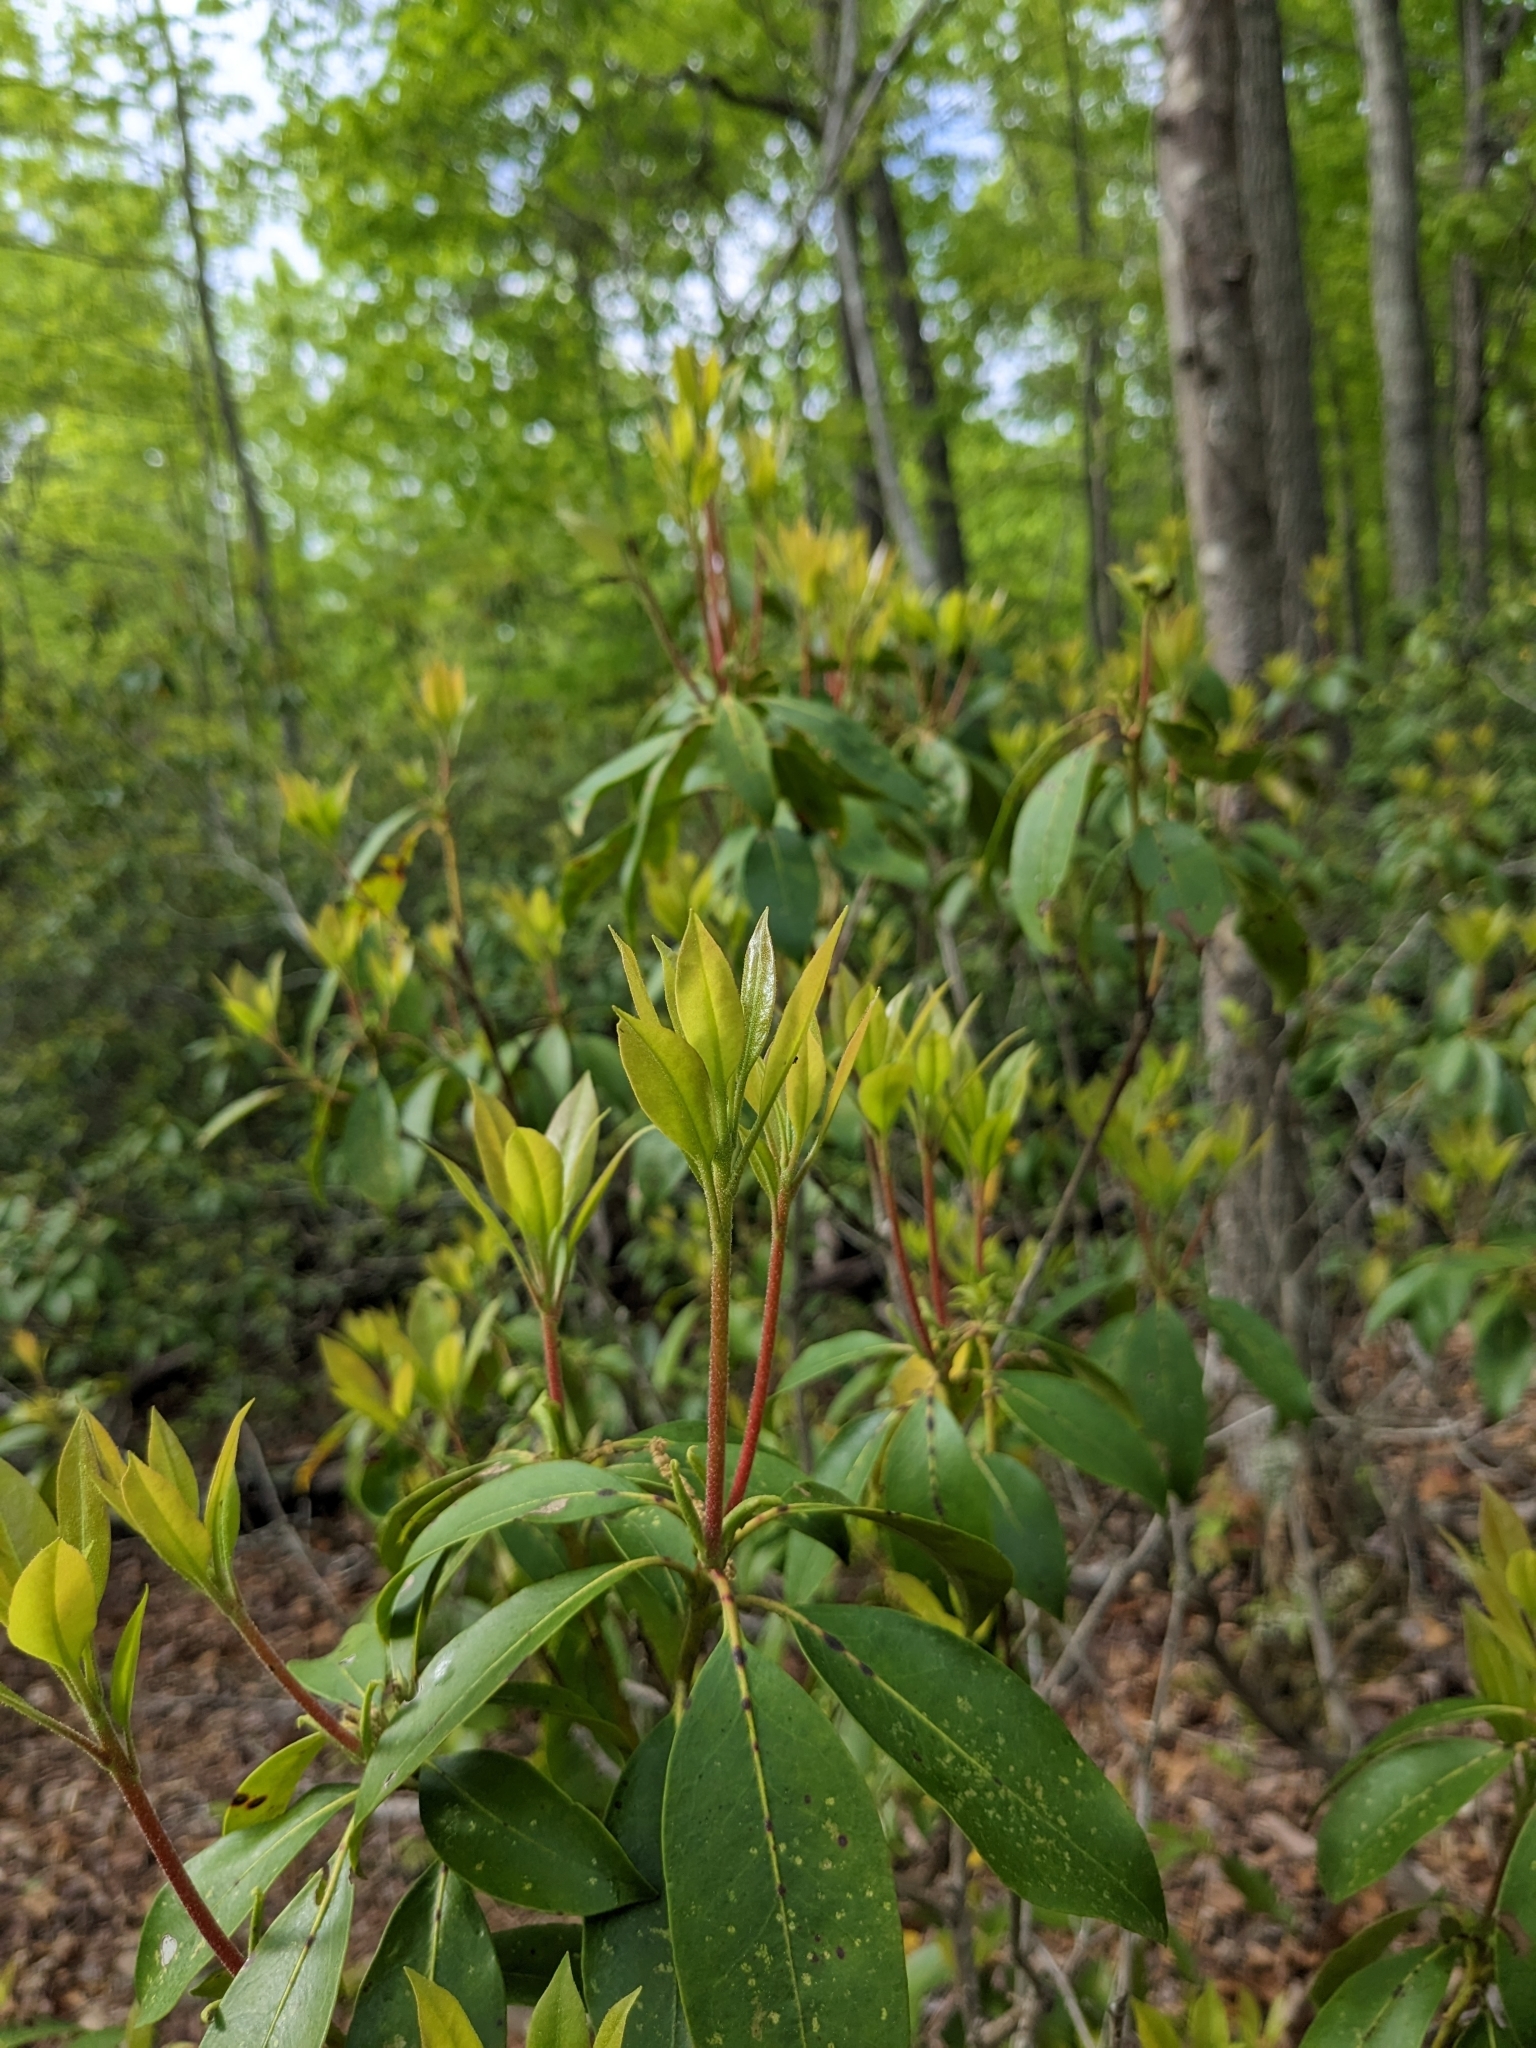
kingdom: Plantae
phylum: Tracheophyta
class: Magnoliopsida
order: Ericales
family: Ericaceae
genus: Kalmia
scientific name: Kalmia latifolia
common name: Mountain-laurel
